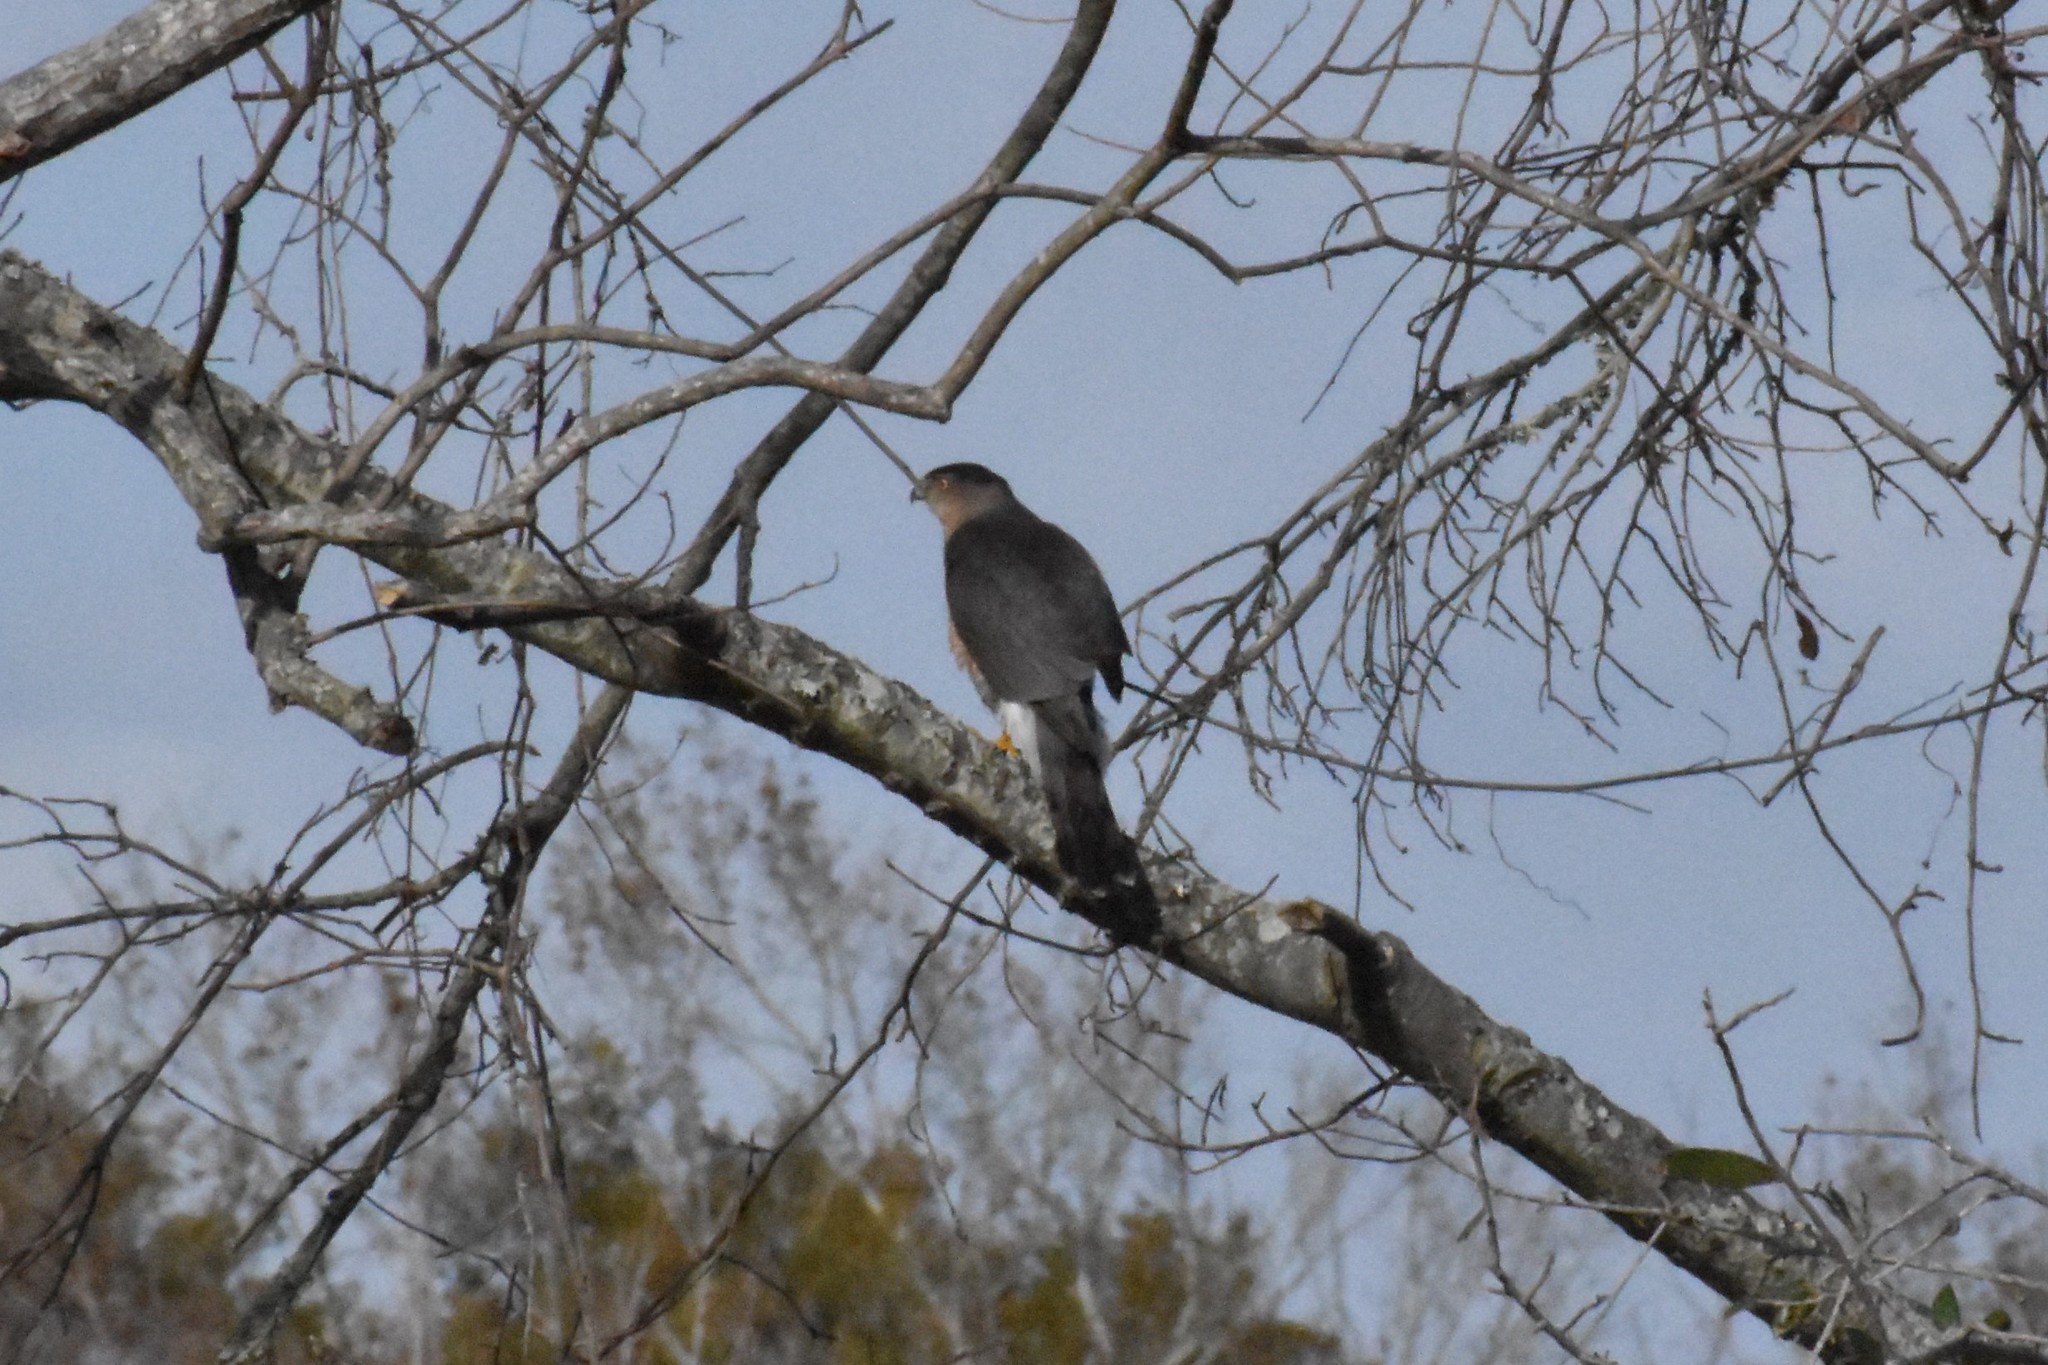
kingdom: Animalia
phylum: Chordata
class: Aves
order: Accipitriformes
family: Accipitridae
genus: Accipiter
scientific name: Accipiter cooperii
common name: Cooper's hawk
